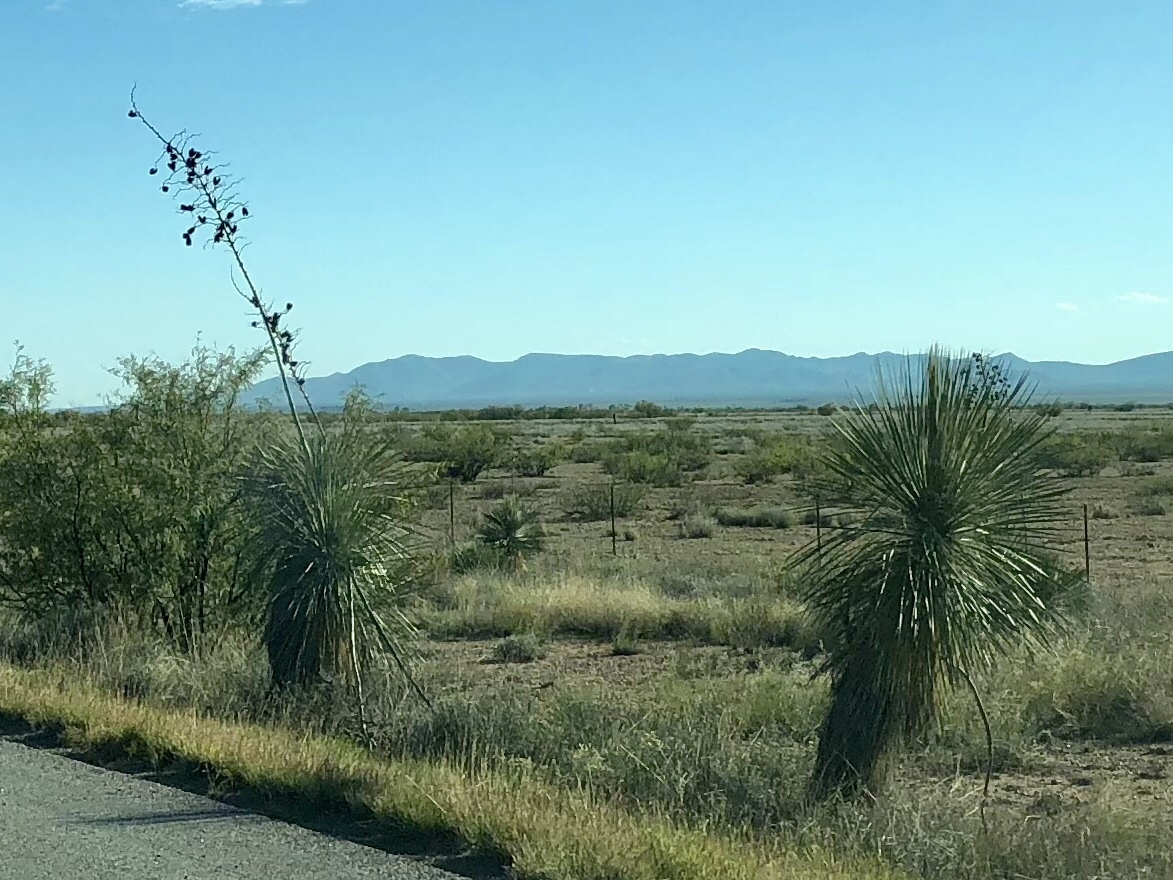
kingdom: Plantae
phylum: Tracheophyta
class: Liliopsida
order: Asparagales
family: Asparagaceae
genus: Yucca
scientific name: Yucca elata
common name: Palmella
